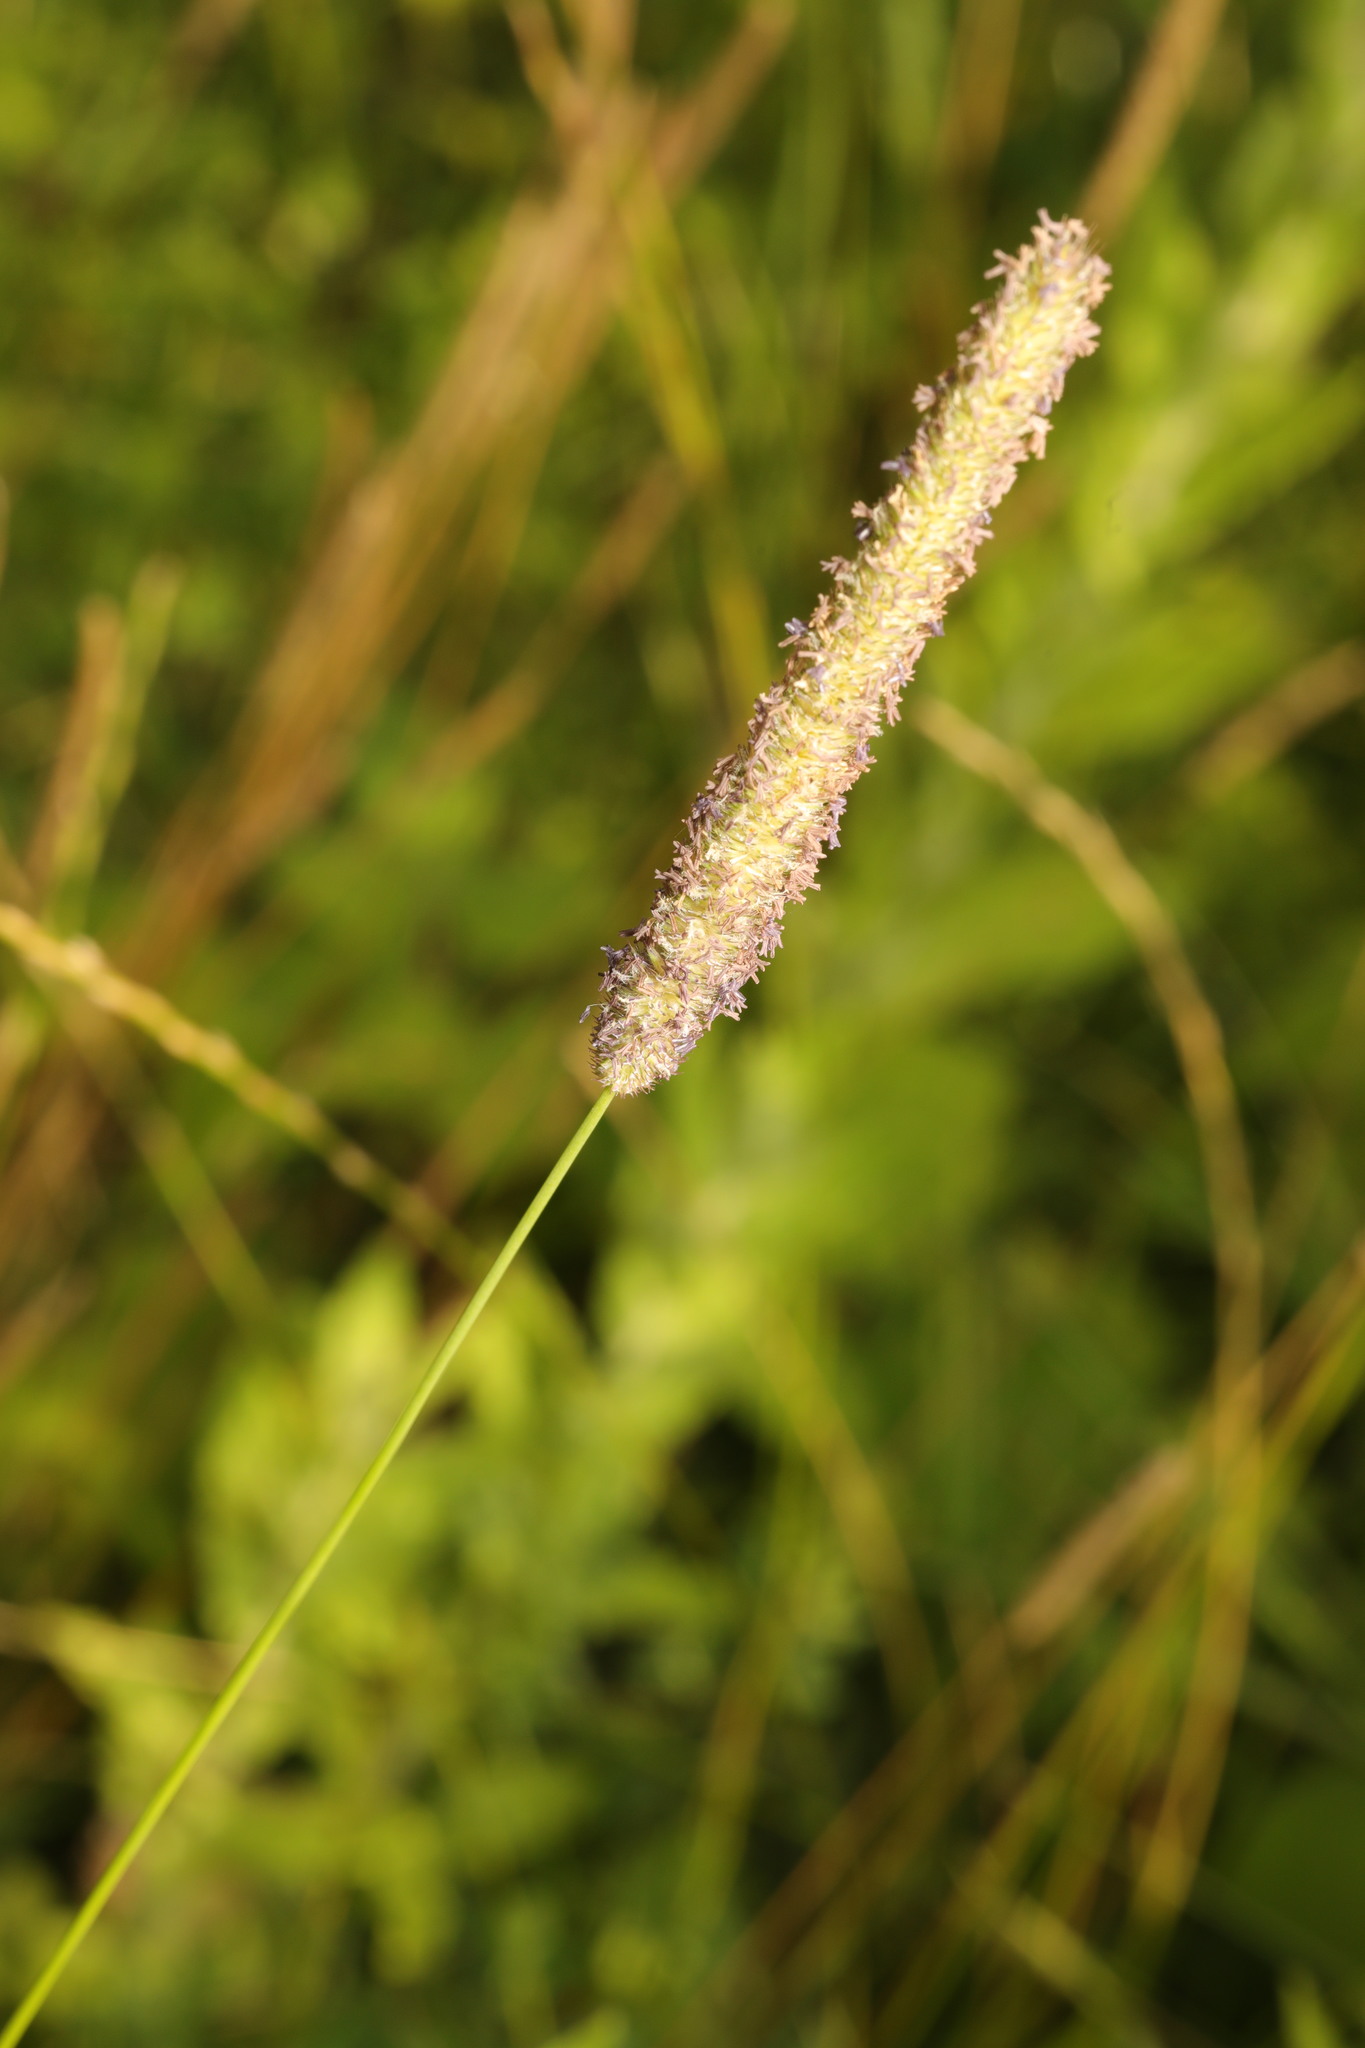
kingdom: Plantae
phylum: Tracheophyta
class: Liliopsida
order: Poales
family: Poaceae
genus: Phleum
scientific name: Phleum pratense
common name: Timothy grass
